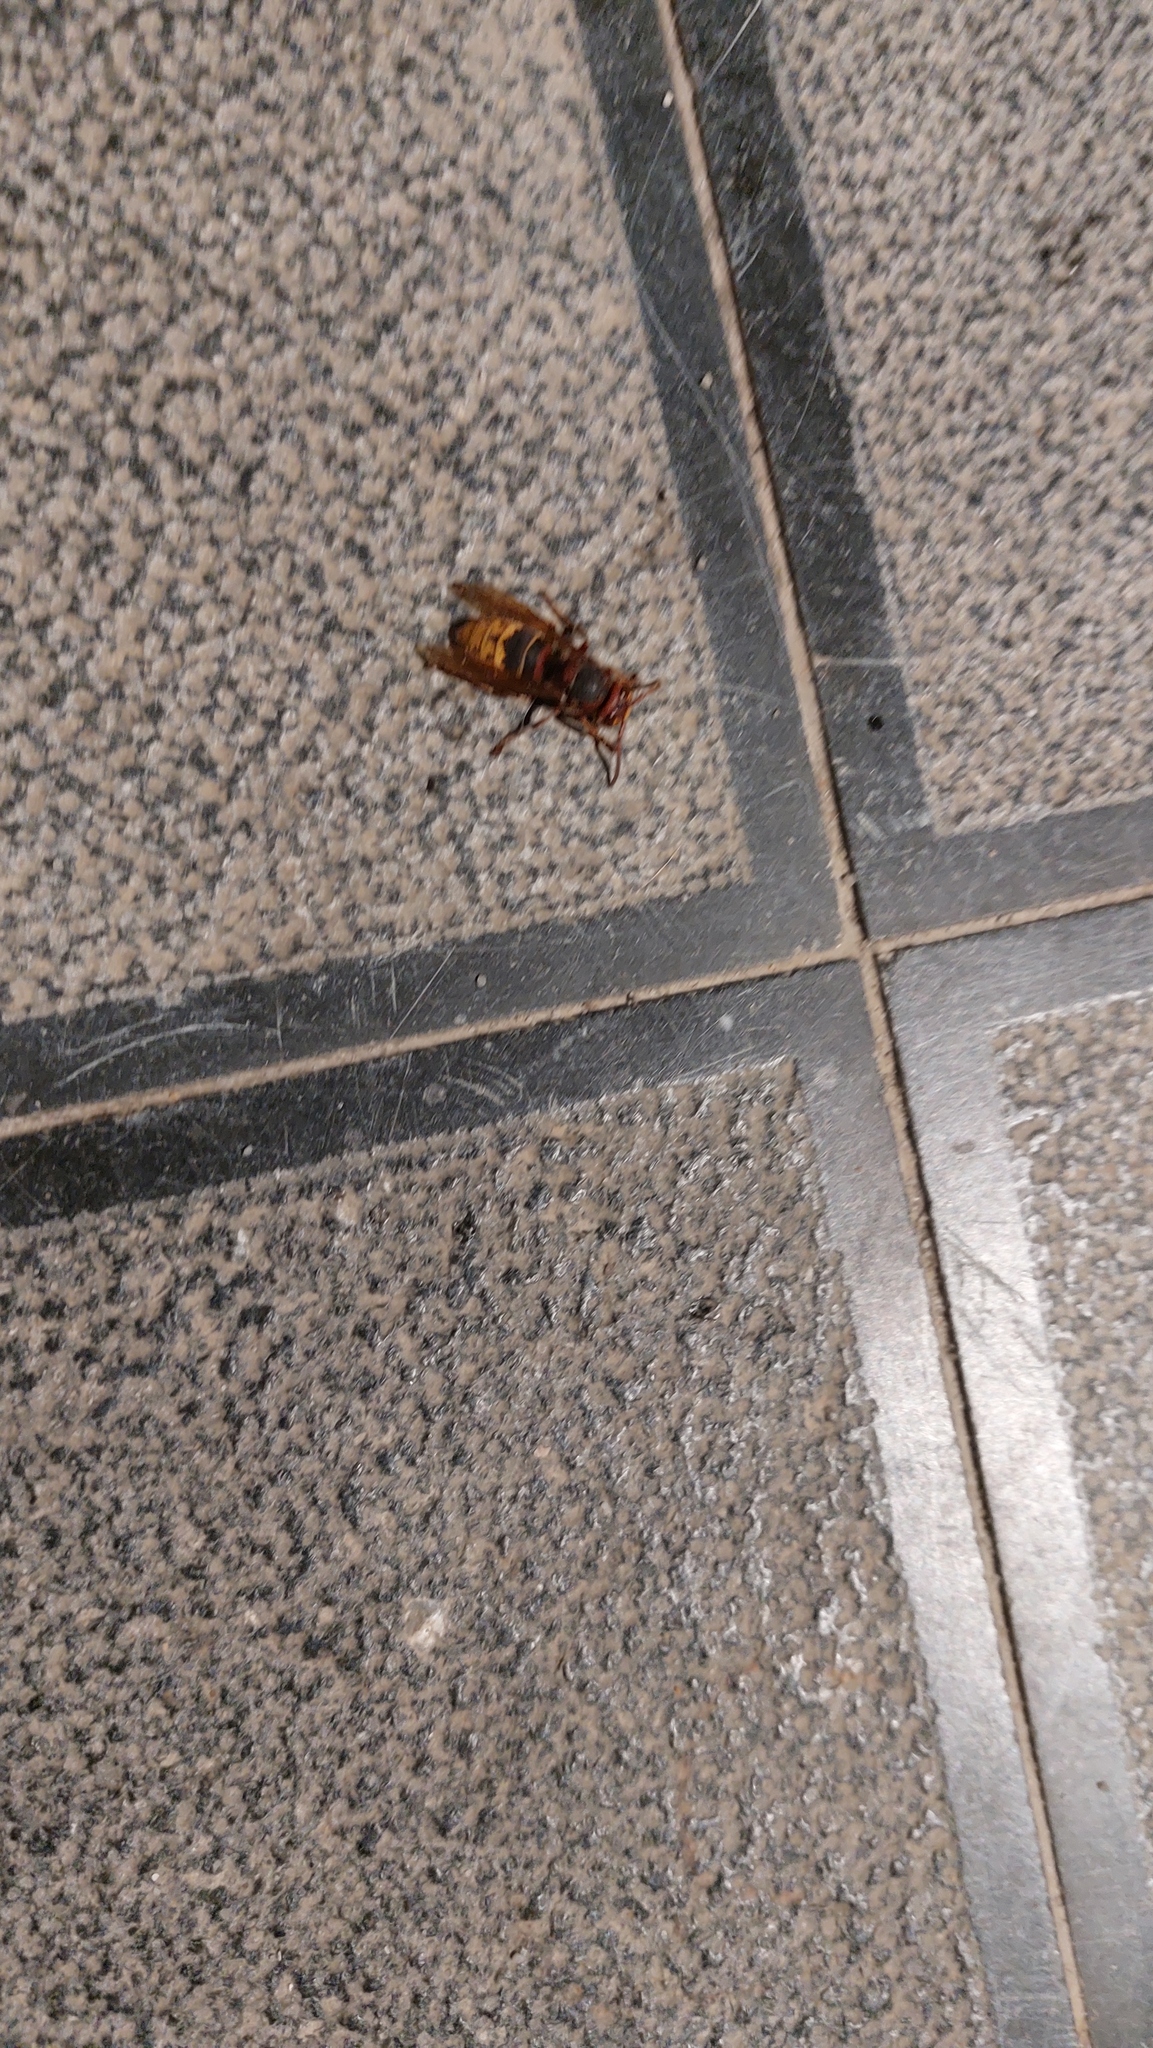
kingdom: Animalia
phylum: Arthropoda
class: Insecta
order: Hymenoptera
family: Vespidae
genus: Vespa
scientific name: Vespa crabro
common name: Hornet
